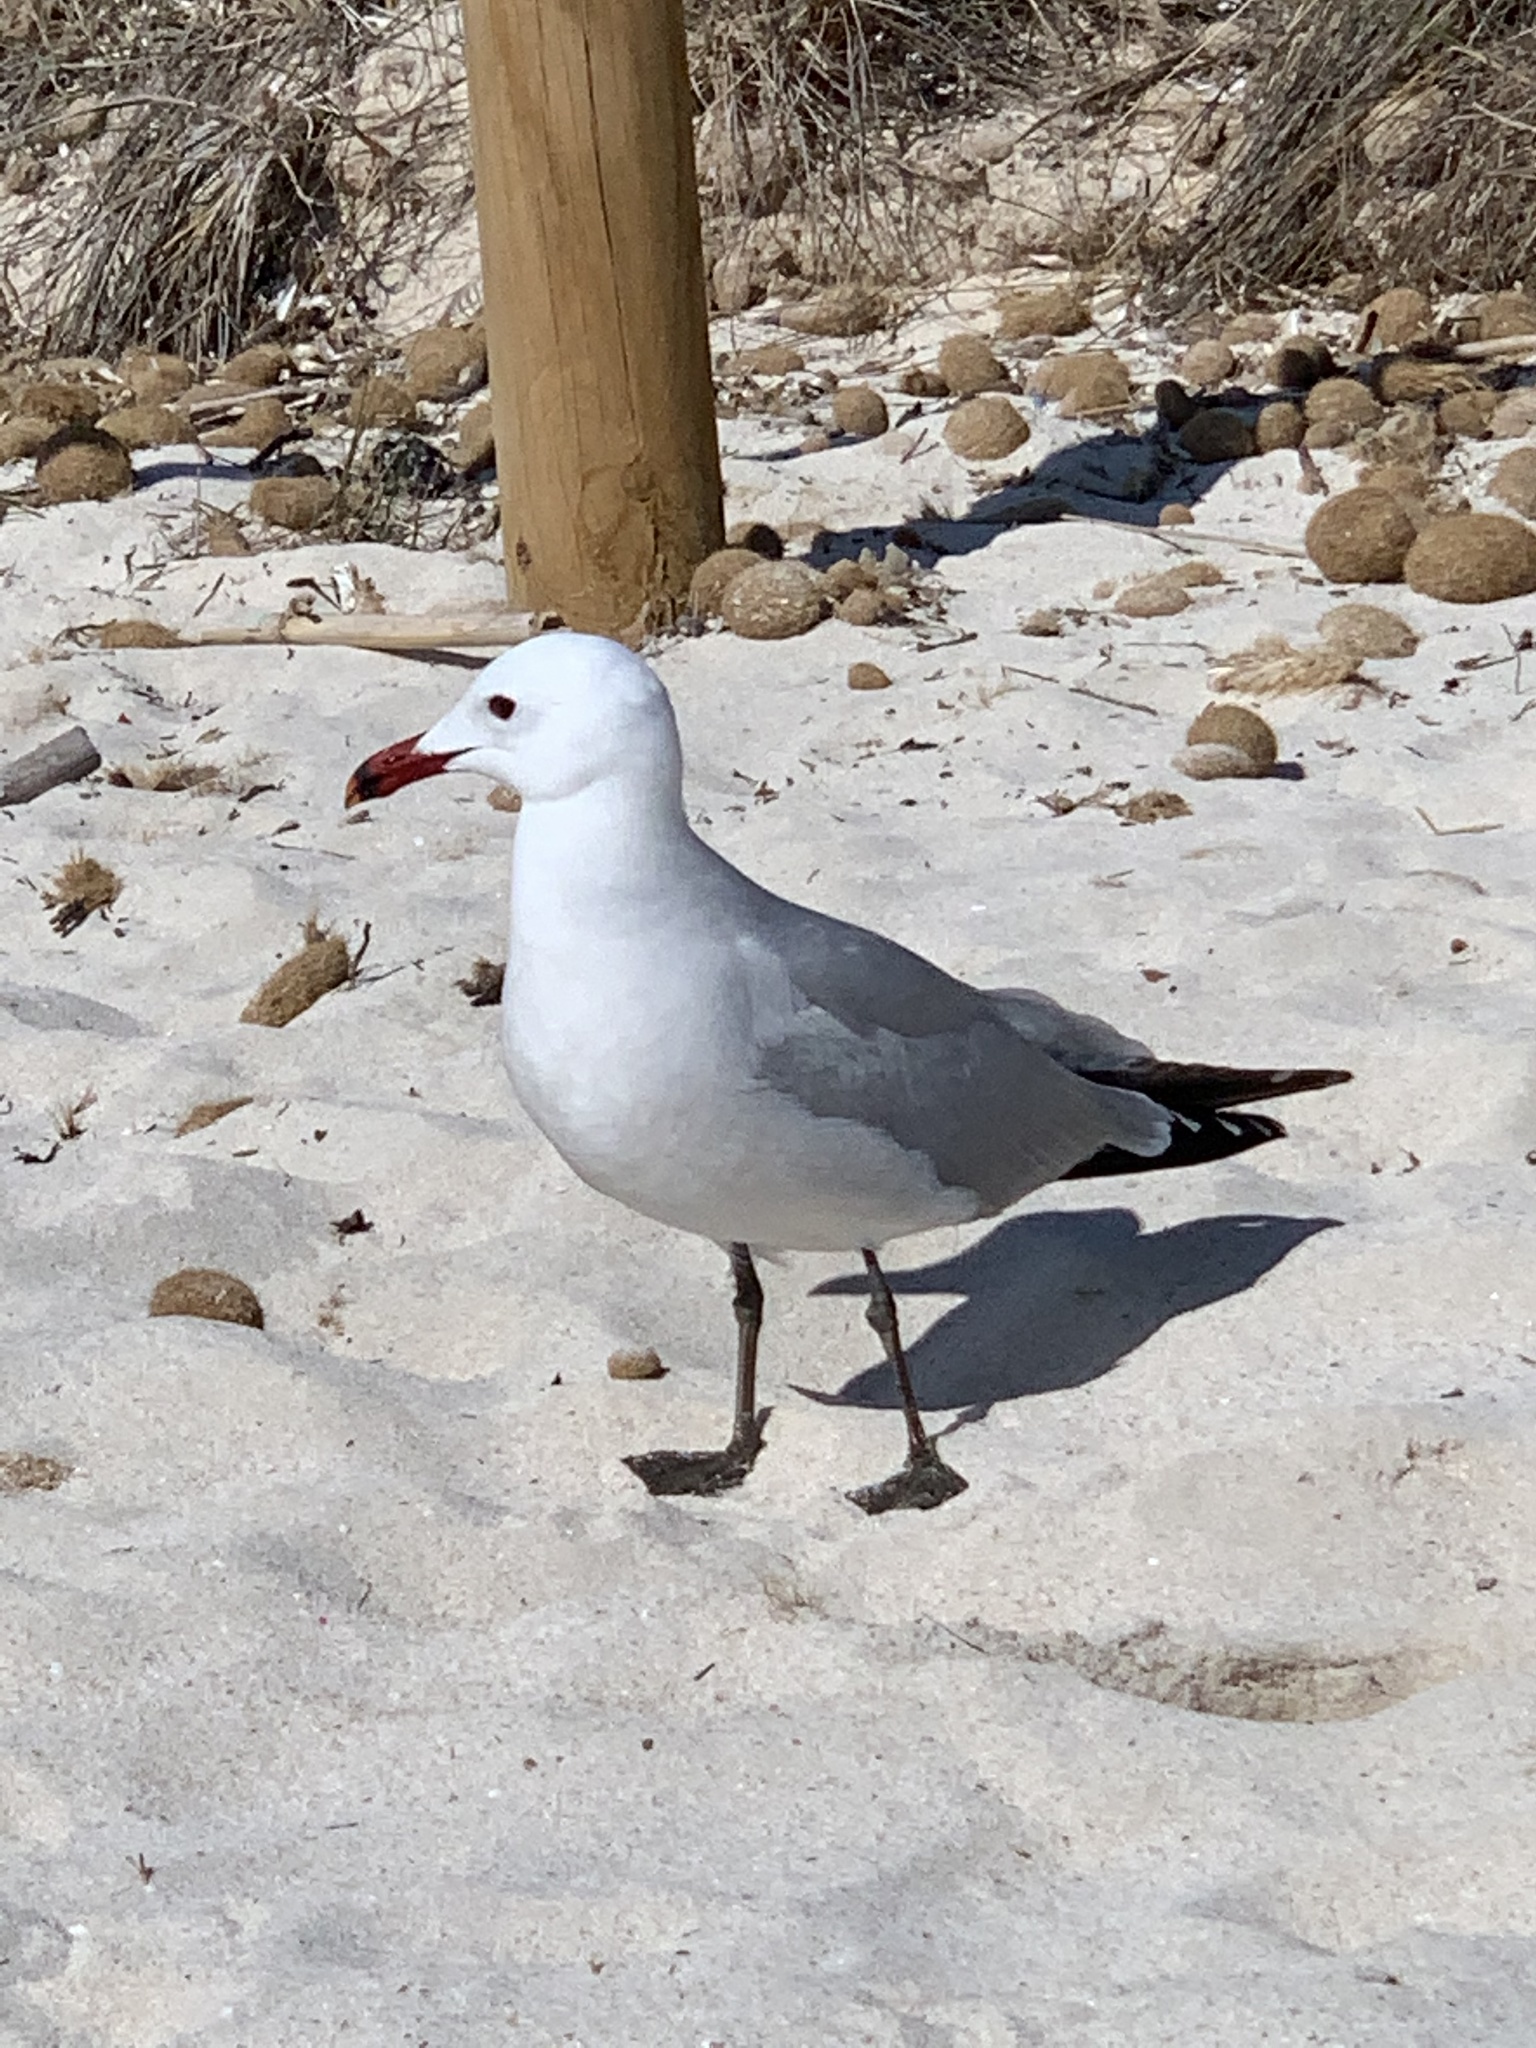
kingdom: Animalia
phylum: Chordata
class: Aves
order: Charadriiformes
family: Laridae
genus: Ichthyaetus
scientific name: Ichthyaetus audouinii
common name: Audouin's gull
